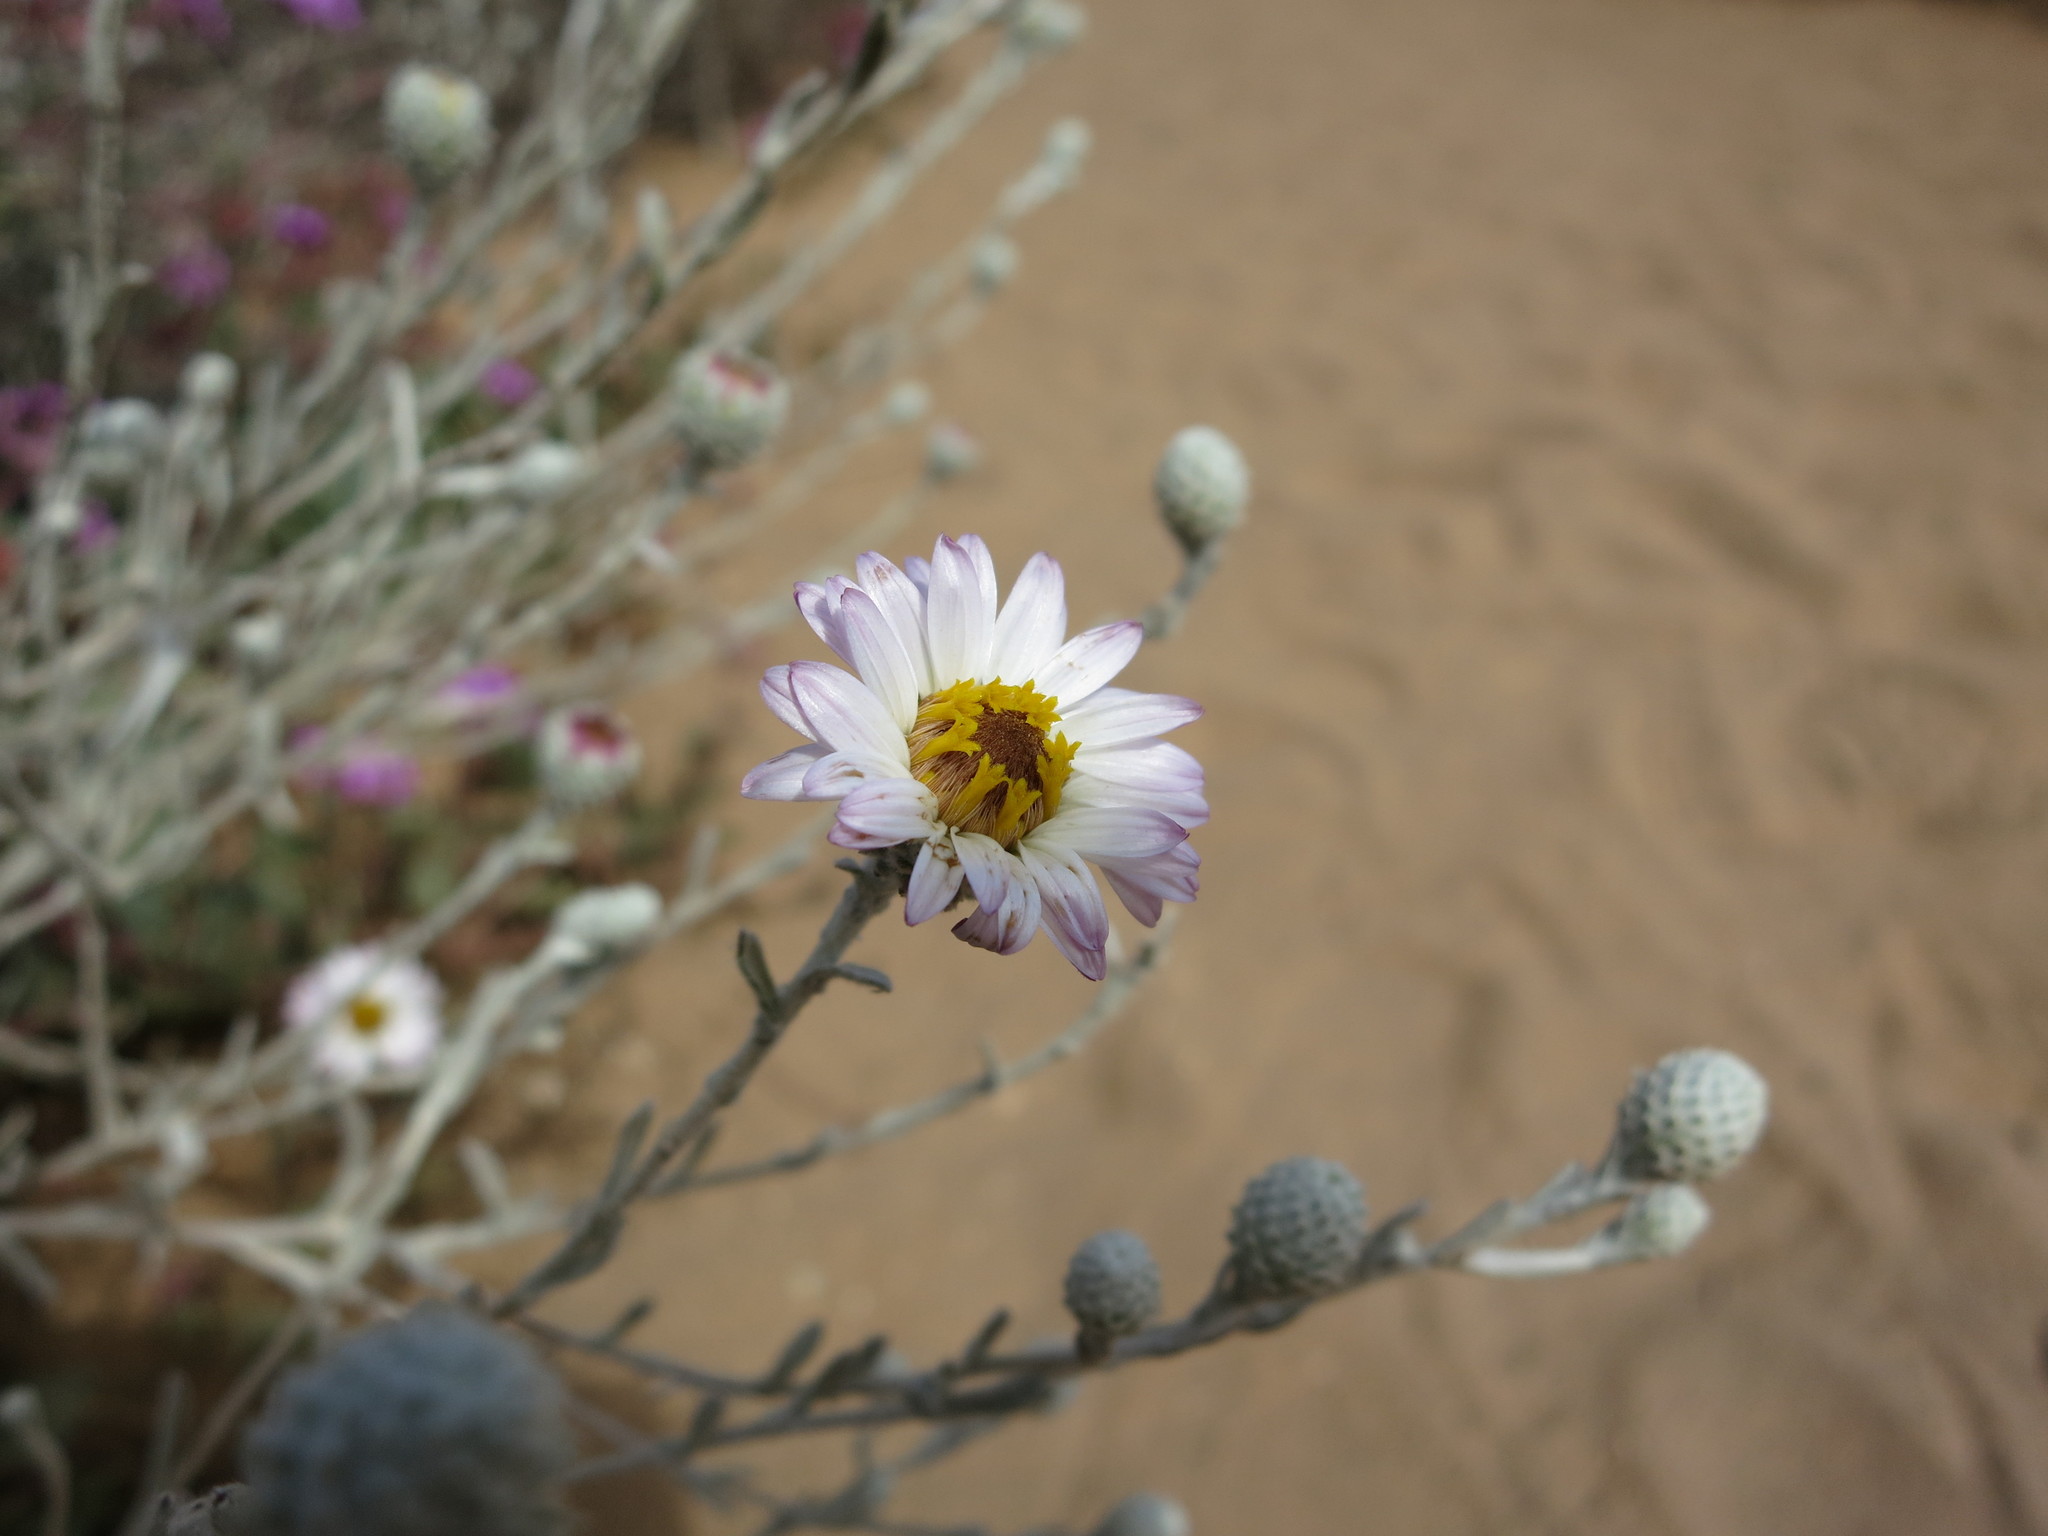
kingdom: Plantae
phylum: Tracheophyta
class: Magnoliopsida
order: Asterales
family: Asteraceae
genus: Corethrogyne
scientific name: Corethrogyne filaginifolia
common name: Sand-aster
